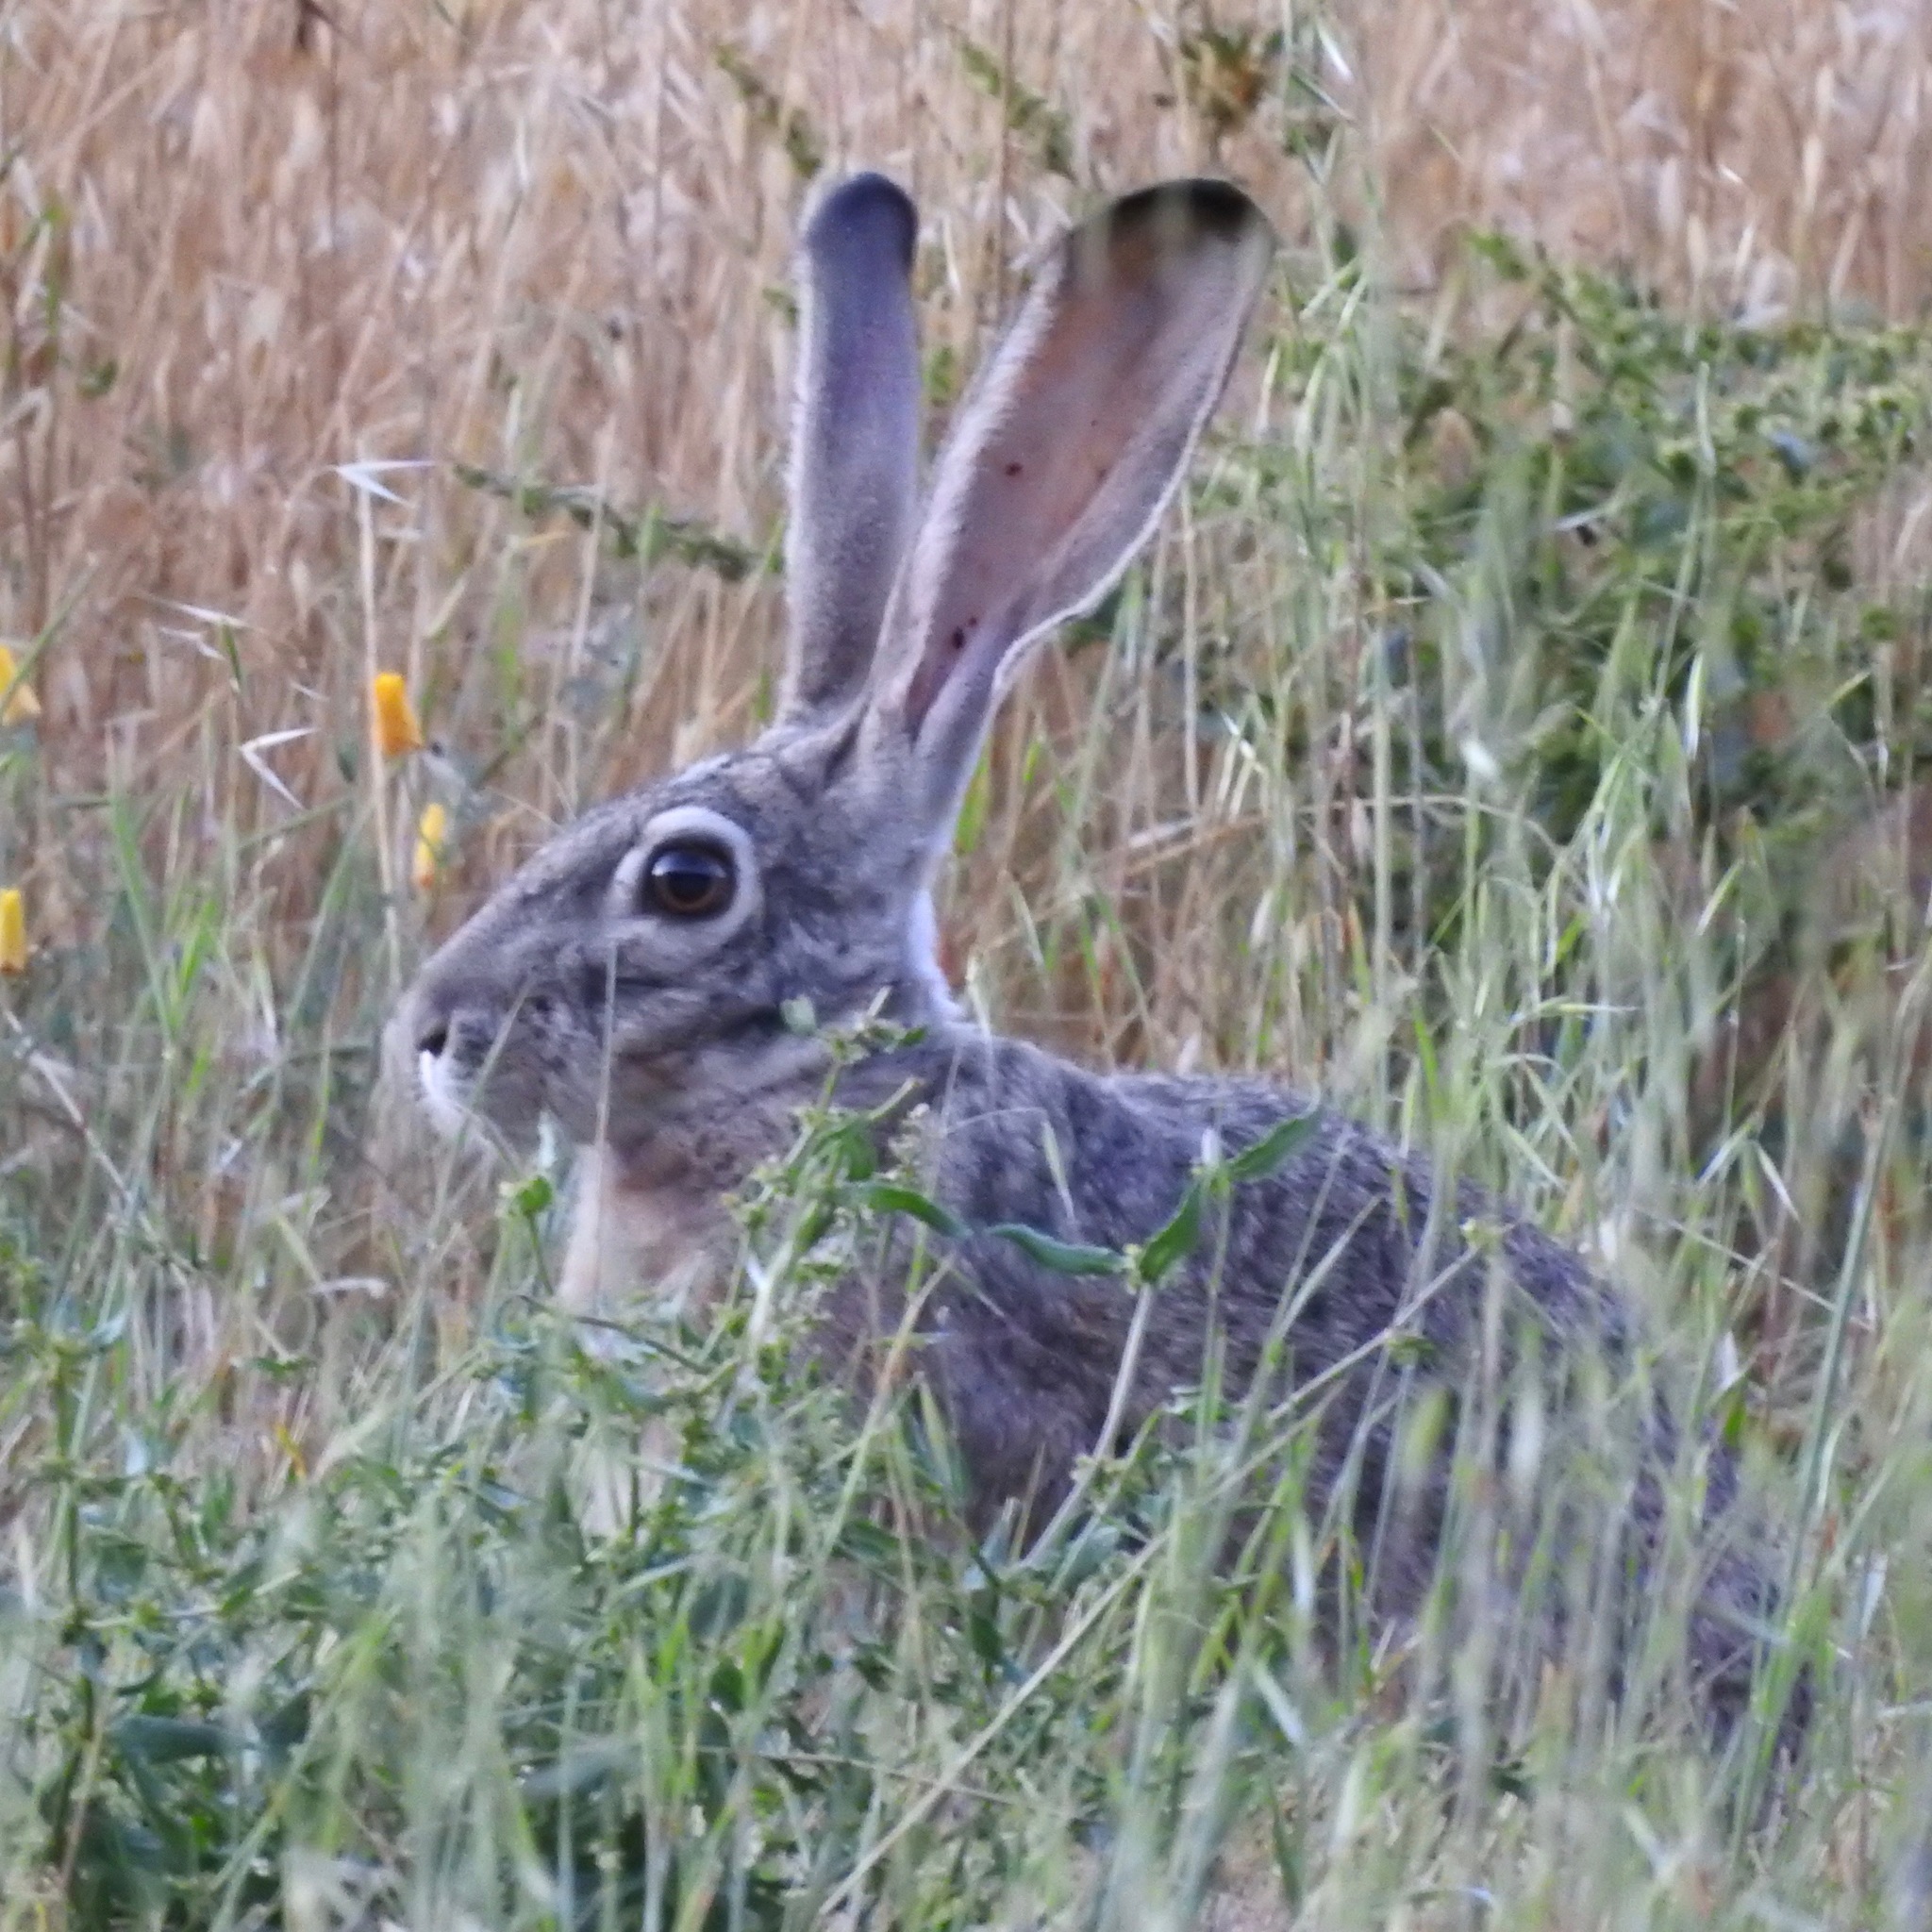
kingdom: Animalia
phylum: Chordata
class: Mammalia
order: Lagomorpha
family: Leporidae
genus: Lepus
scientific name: Lepus californicus
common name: Black-tailed jackrabbit
